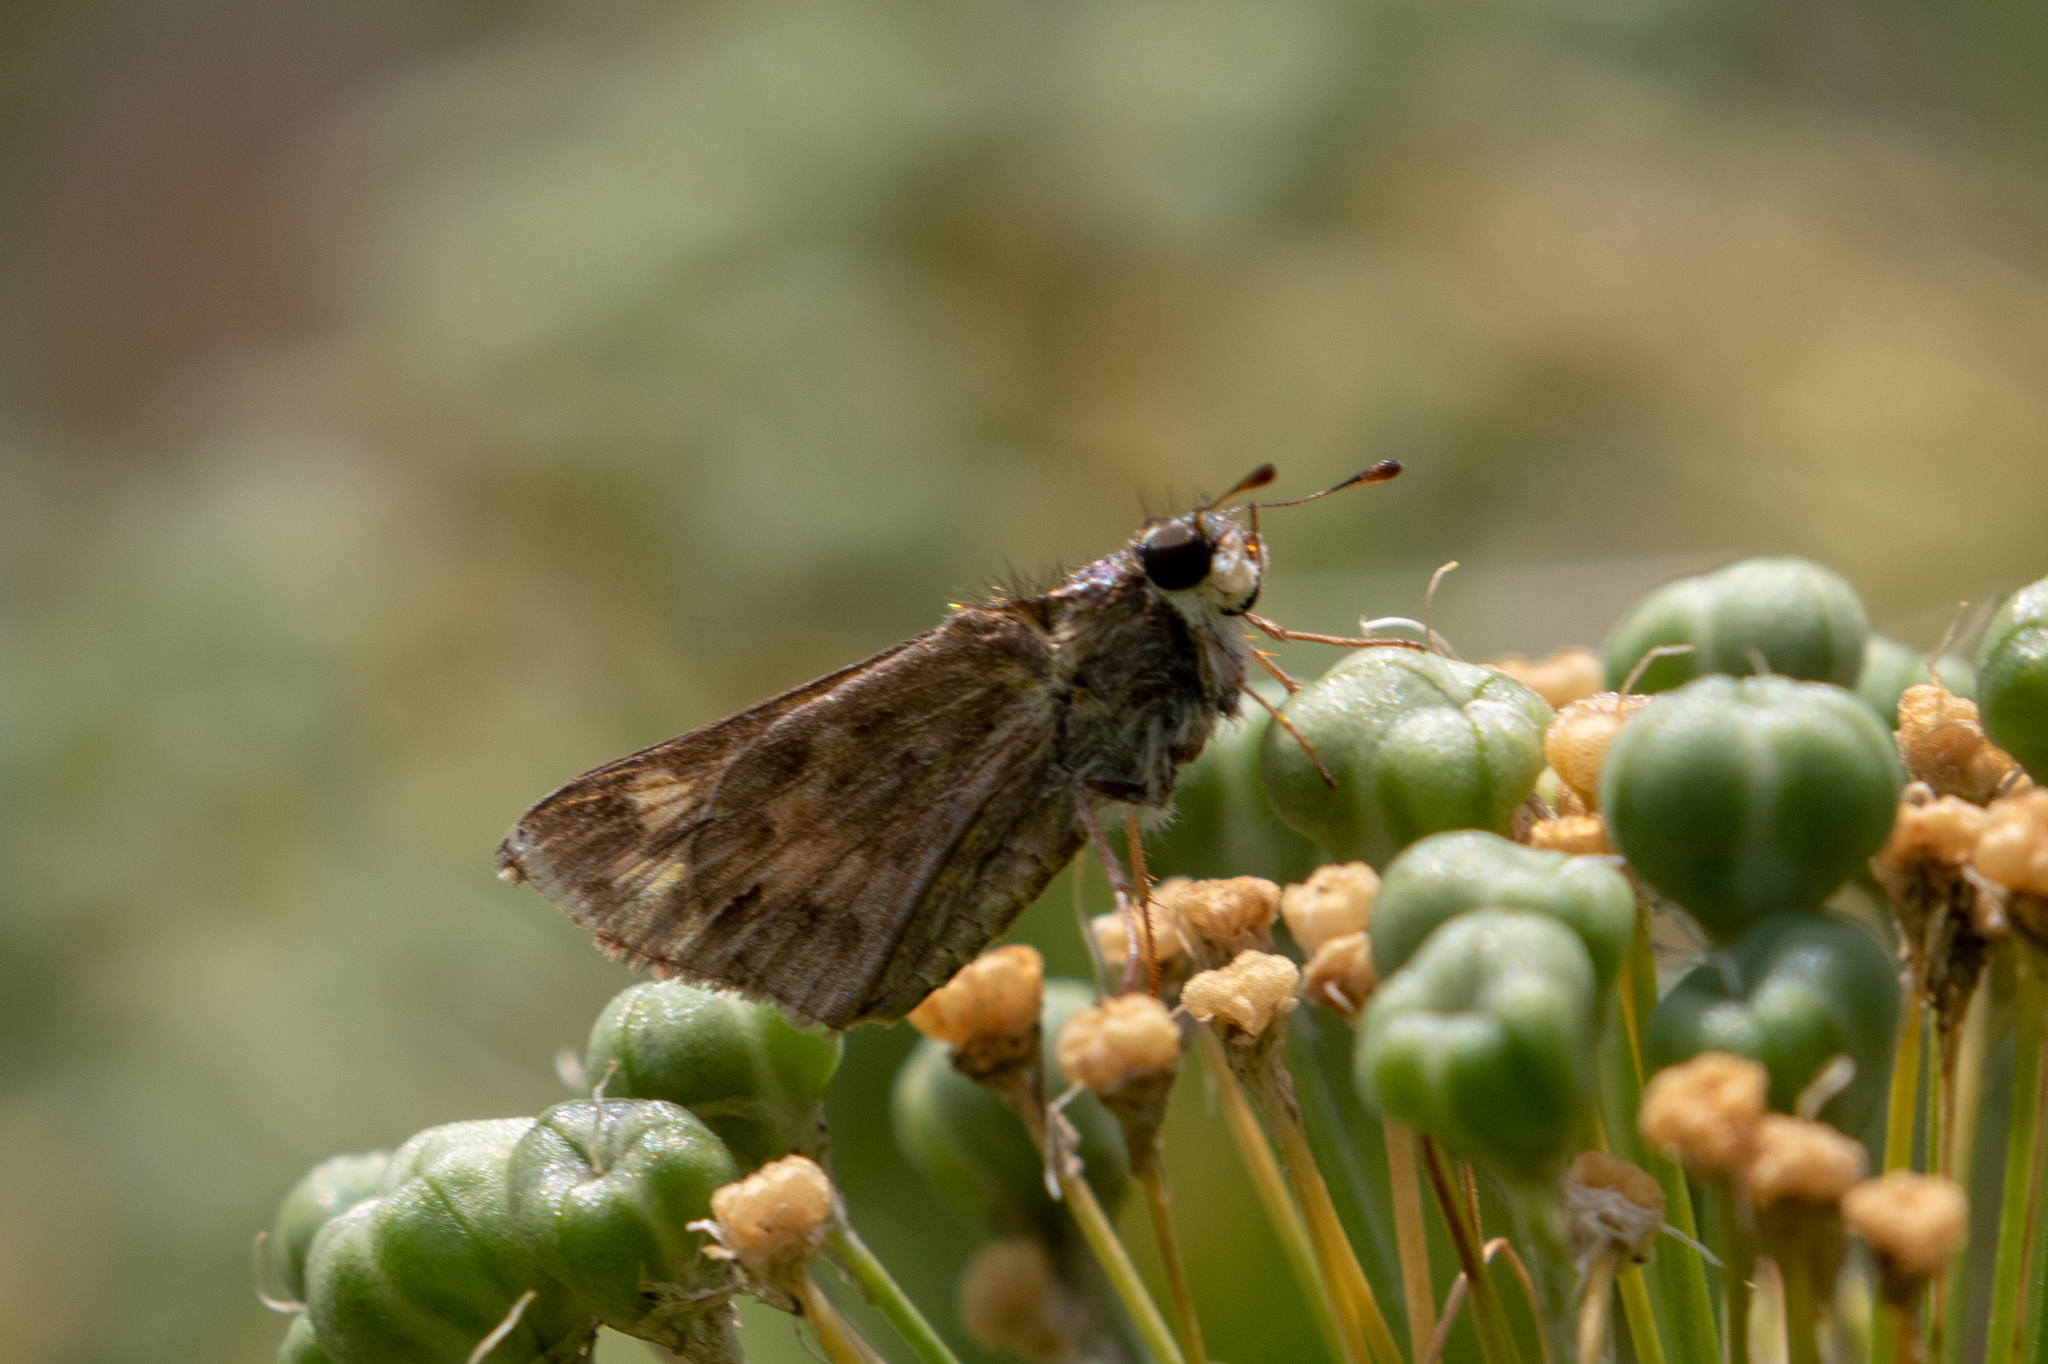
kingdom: Animalia
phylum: Arthropoda
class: Insecta
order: Lepidoptera
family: Hesperiidae
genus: Hylephila
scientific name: Hylephila phyleus
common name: Fiery skipper
